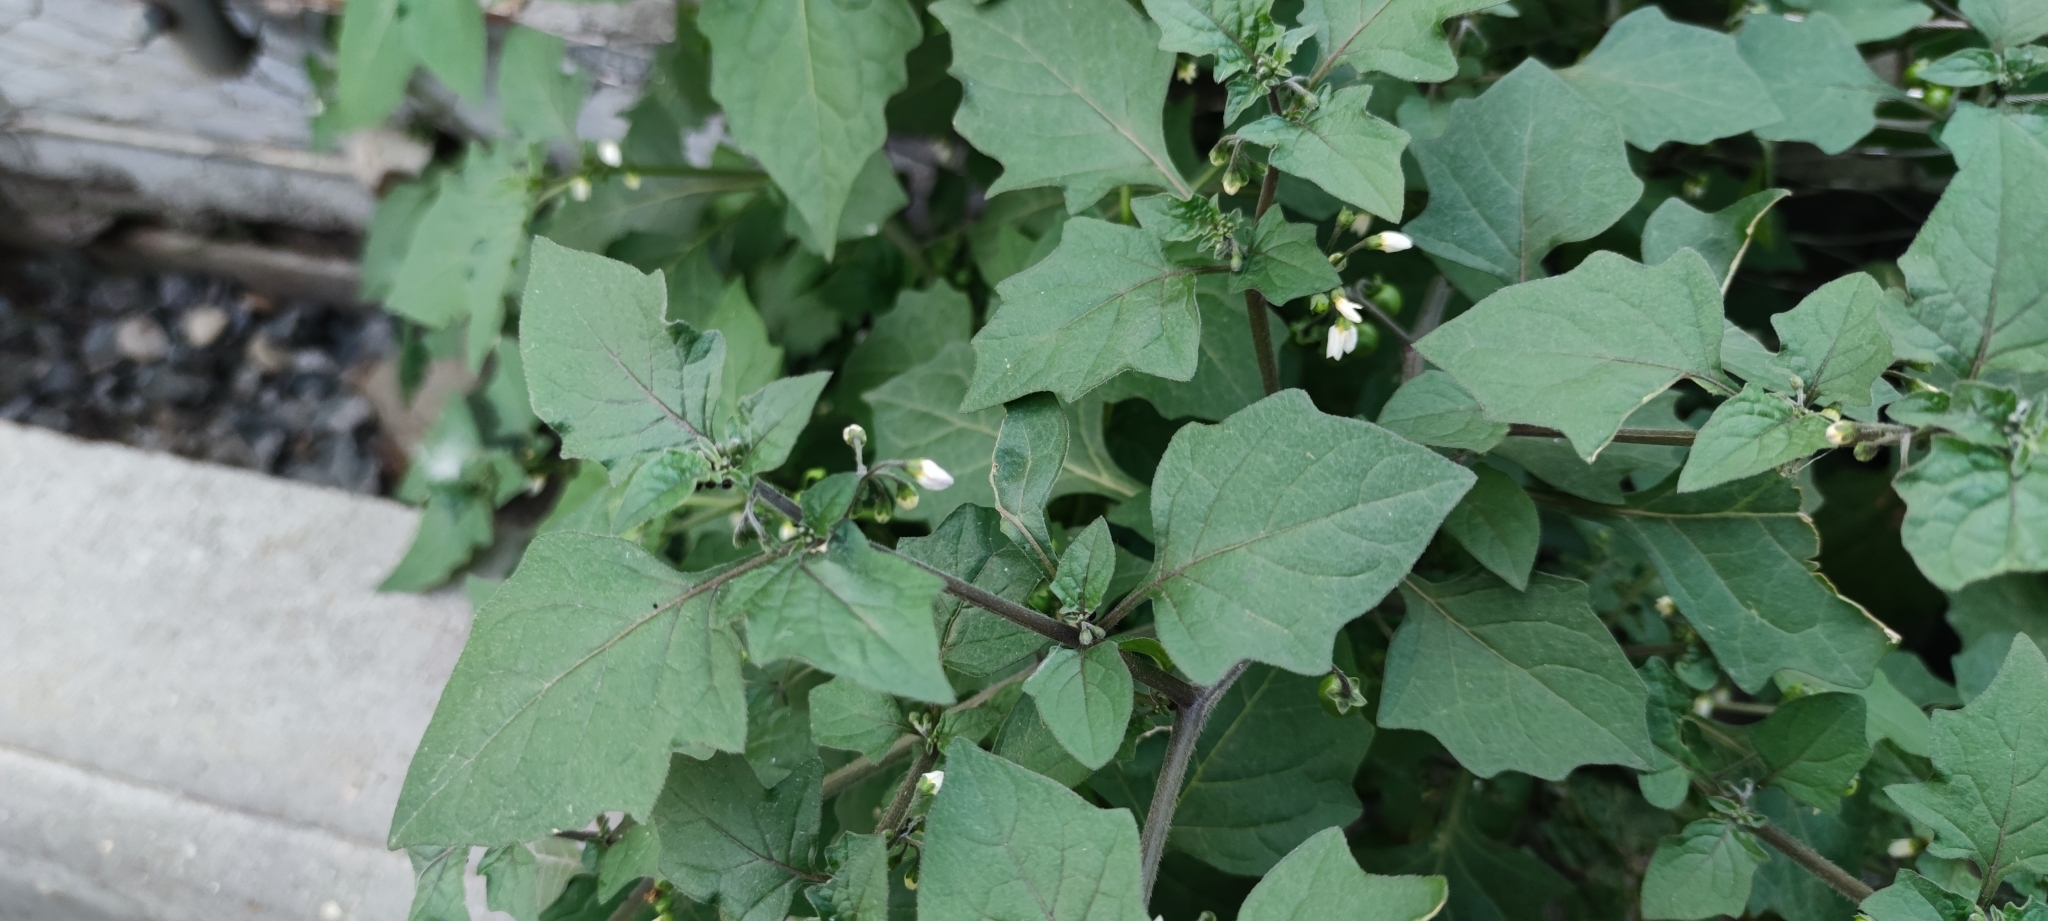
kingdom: Plantae
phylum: Tracheophyta
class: Magnoliopsida
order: Solanales
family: Solanaceae
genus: Solanum
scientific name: Solanum nigrum
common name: Black nightshade
